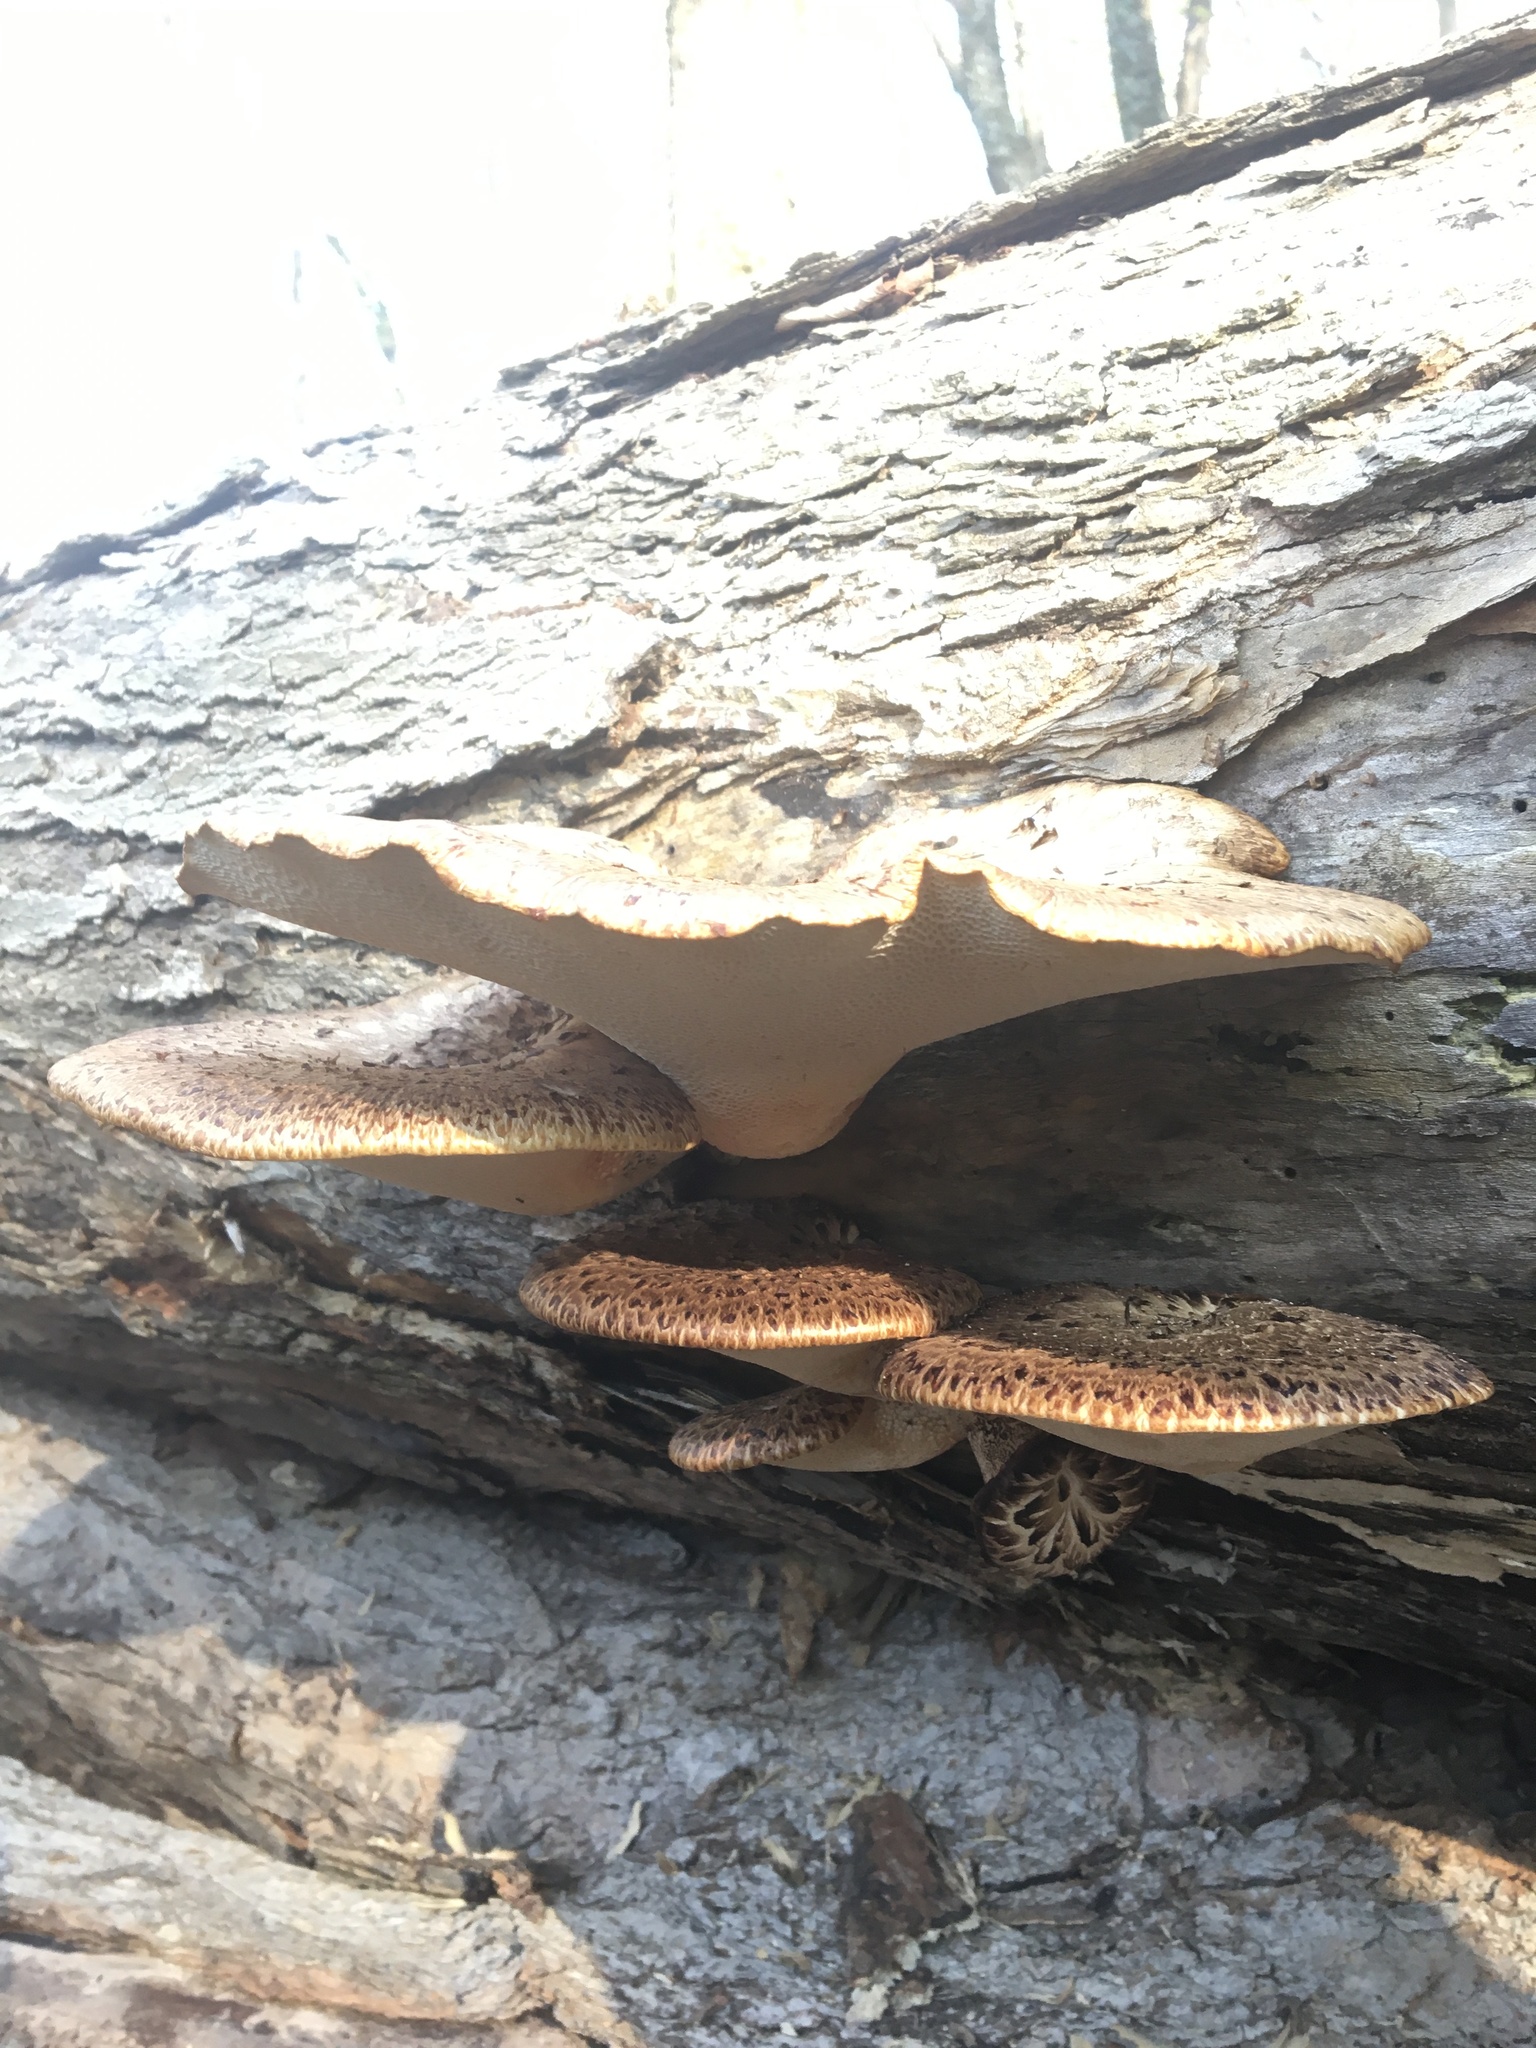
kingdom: Fungi
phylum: Basidiomycota
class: Agaricomycetes
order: Polyporales
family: Polyporaceae
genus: Cerioporus
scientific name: Cerioporus squamosus
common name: Dryad's saddle
